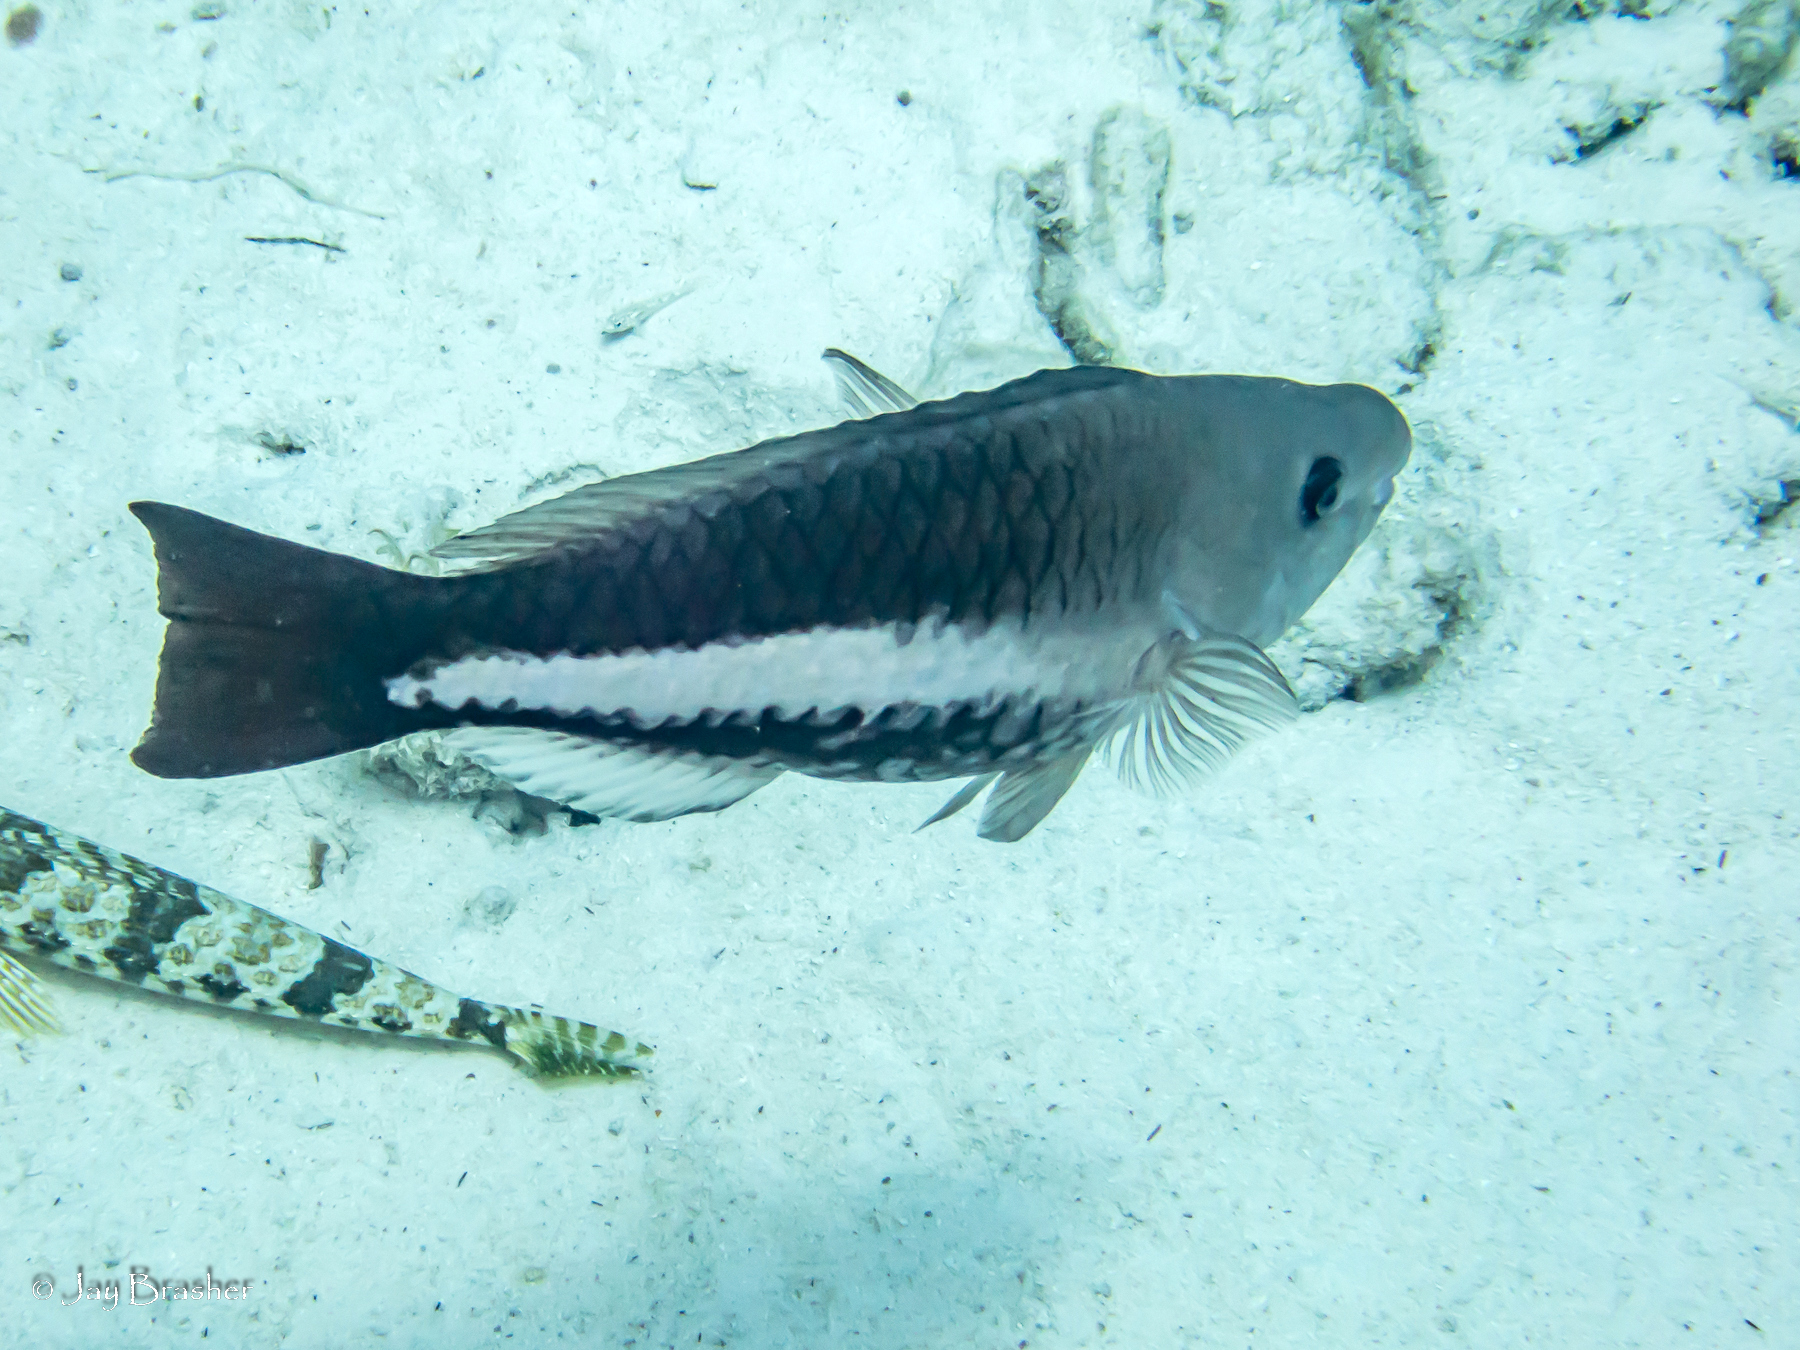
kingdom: Animalia
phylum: Chordata
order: Perciformes
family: Scaridae
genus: Scarus
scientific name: Scarus vetula
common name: Queen parrotfish
